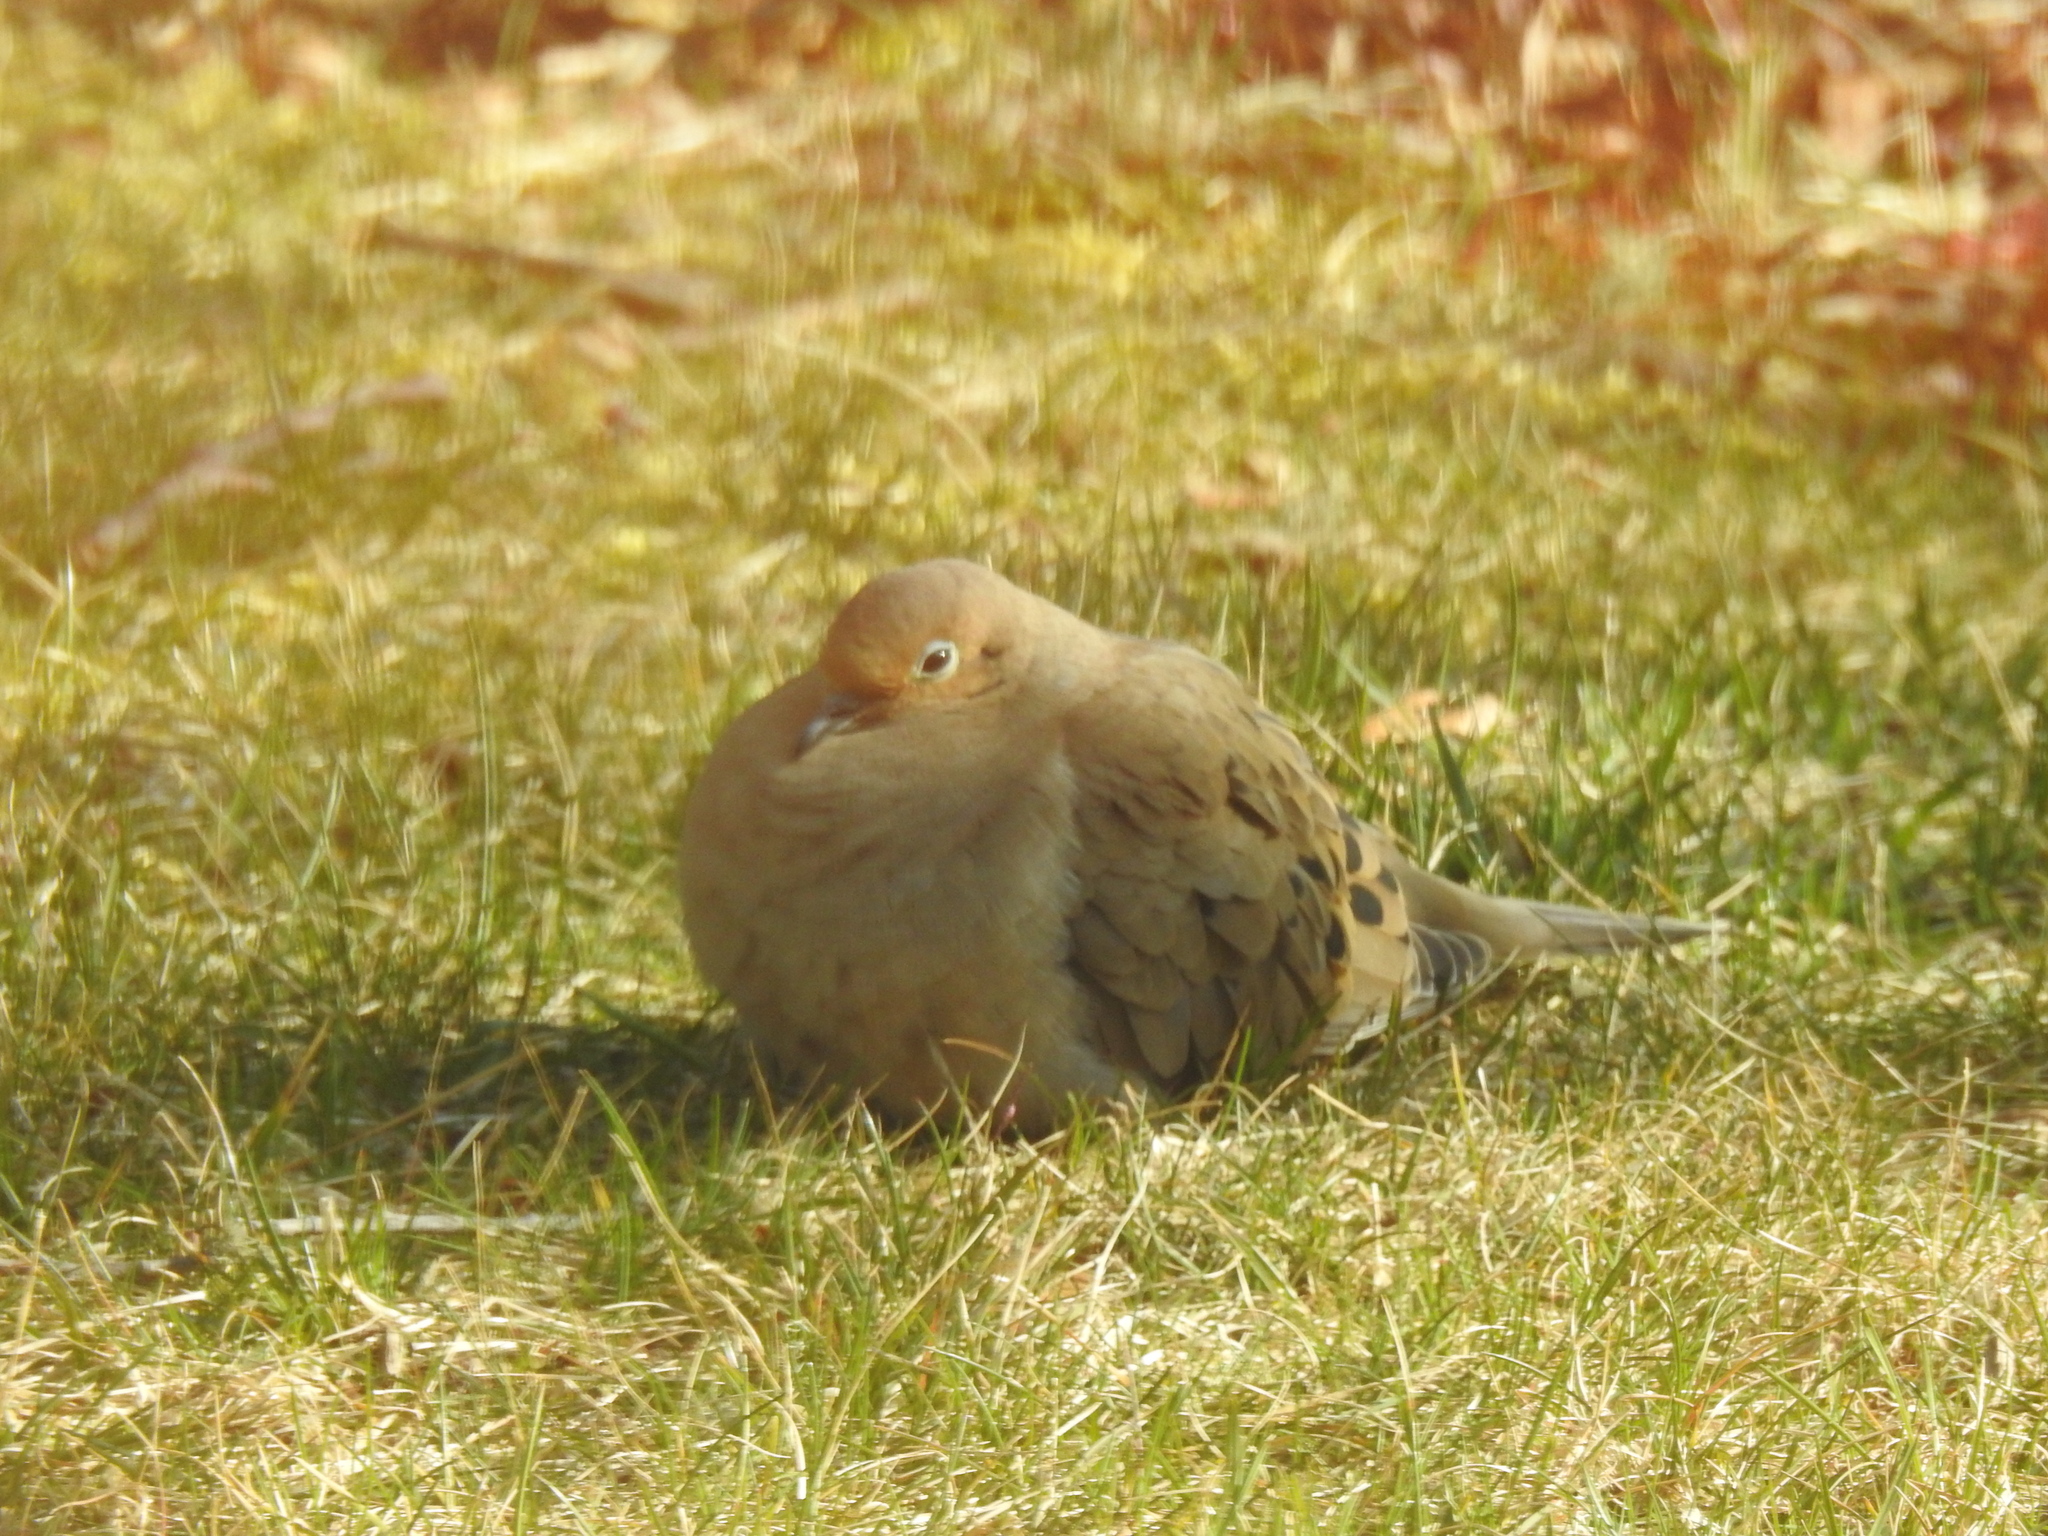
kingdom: Animalia
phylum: Chordata
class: Aves
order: Columbiformes
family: Columbidae
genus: Zenaida
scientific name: Zenaida macroura
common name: Mourning dove
